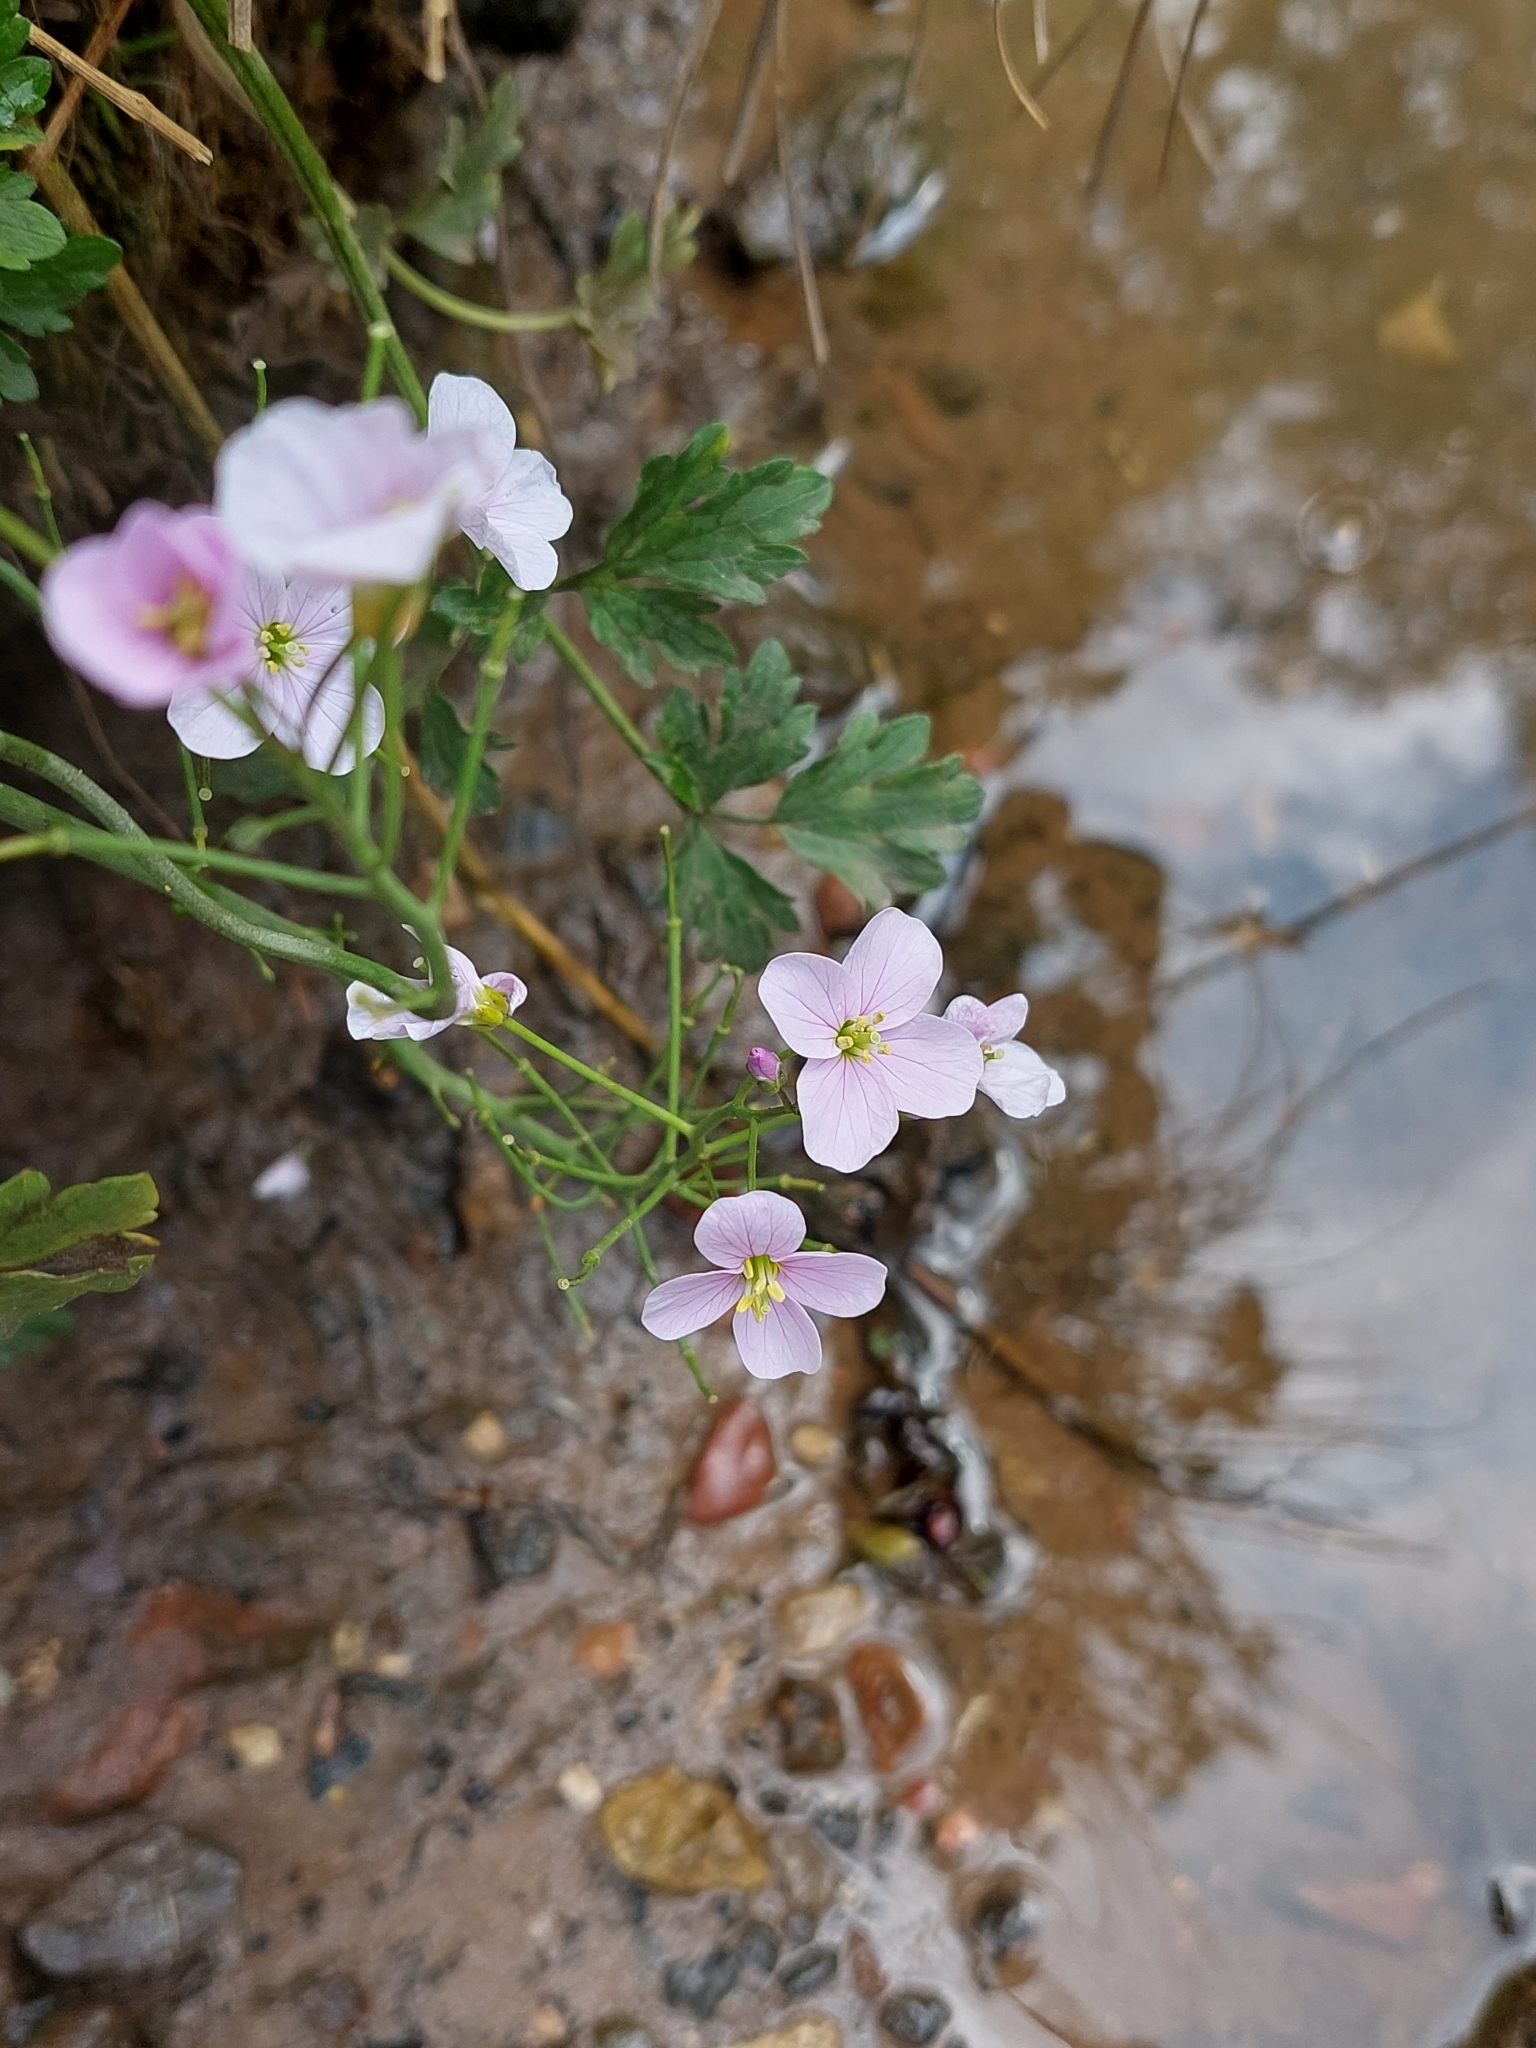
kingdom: Plantae
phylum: Tracheophyta
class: Magnoliopsida
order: Brassicales
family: Brassicaceae
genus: Cardamine
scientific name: Cardamine pratensis
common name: Cuckoo flower
